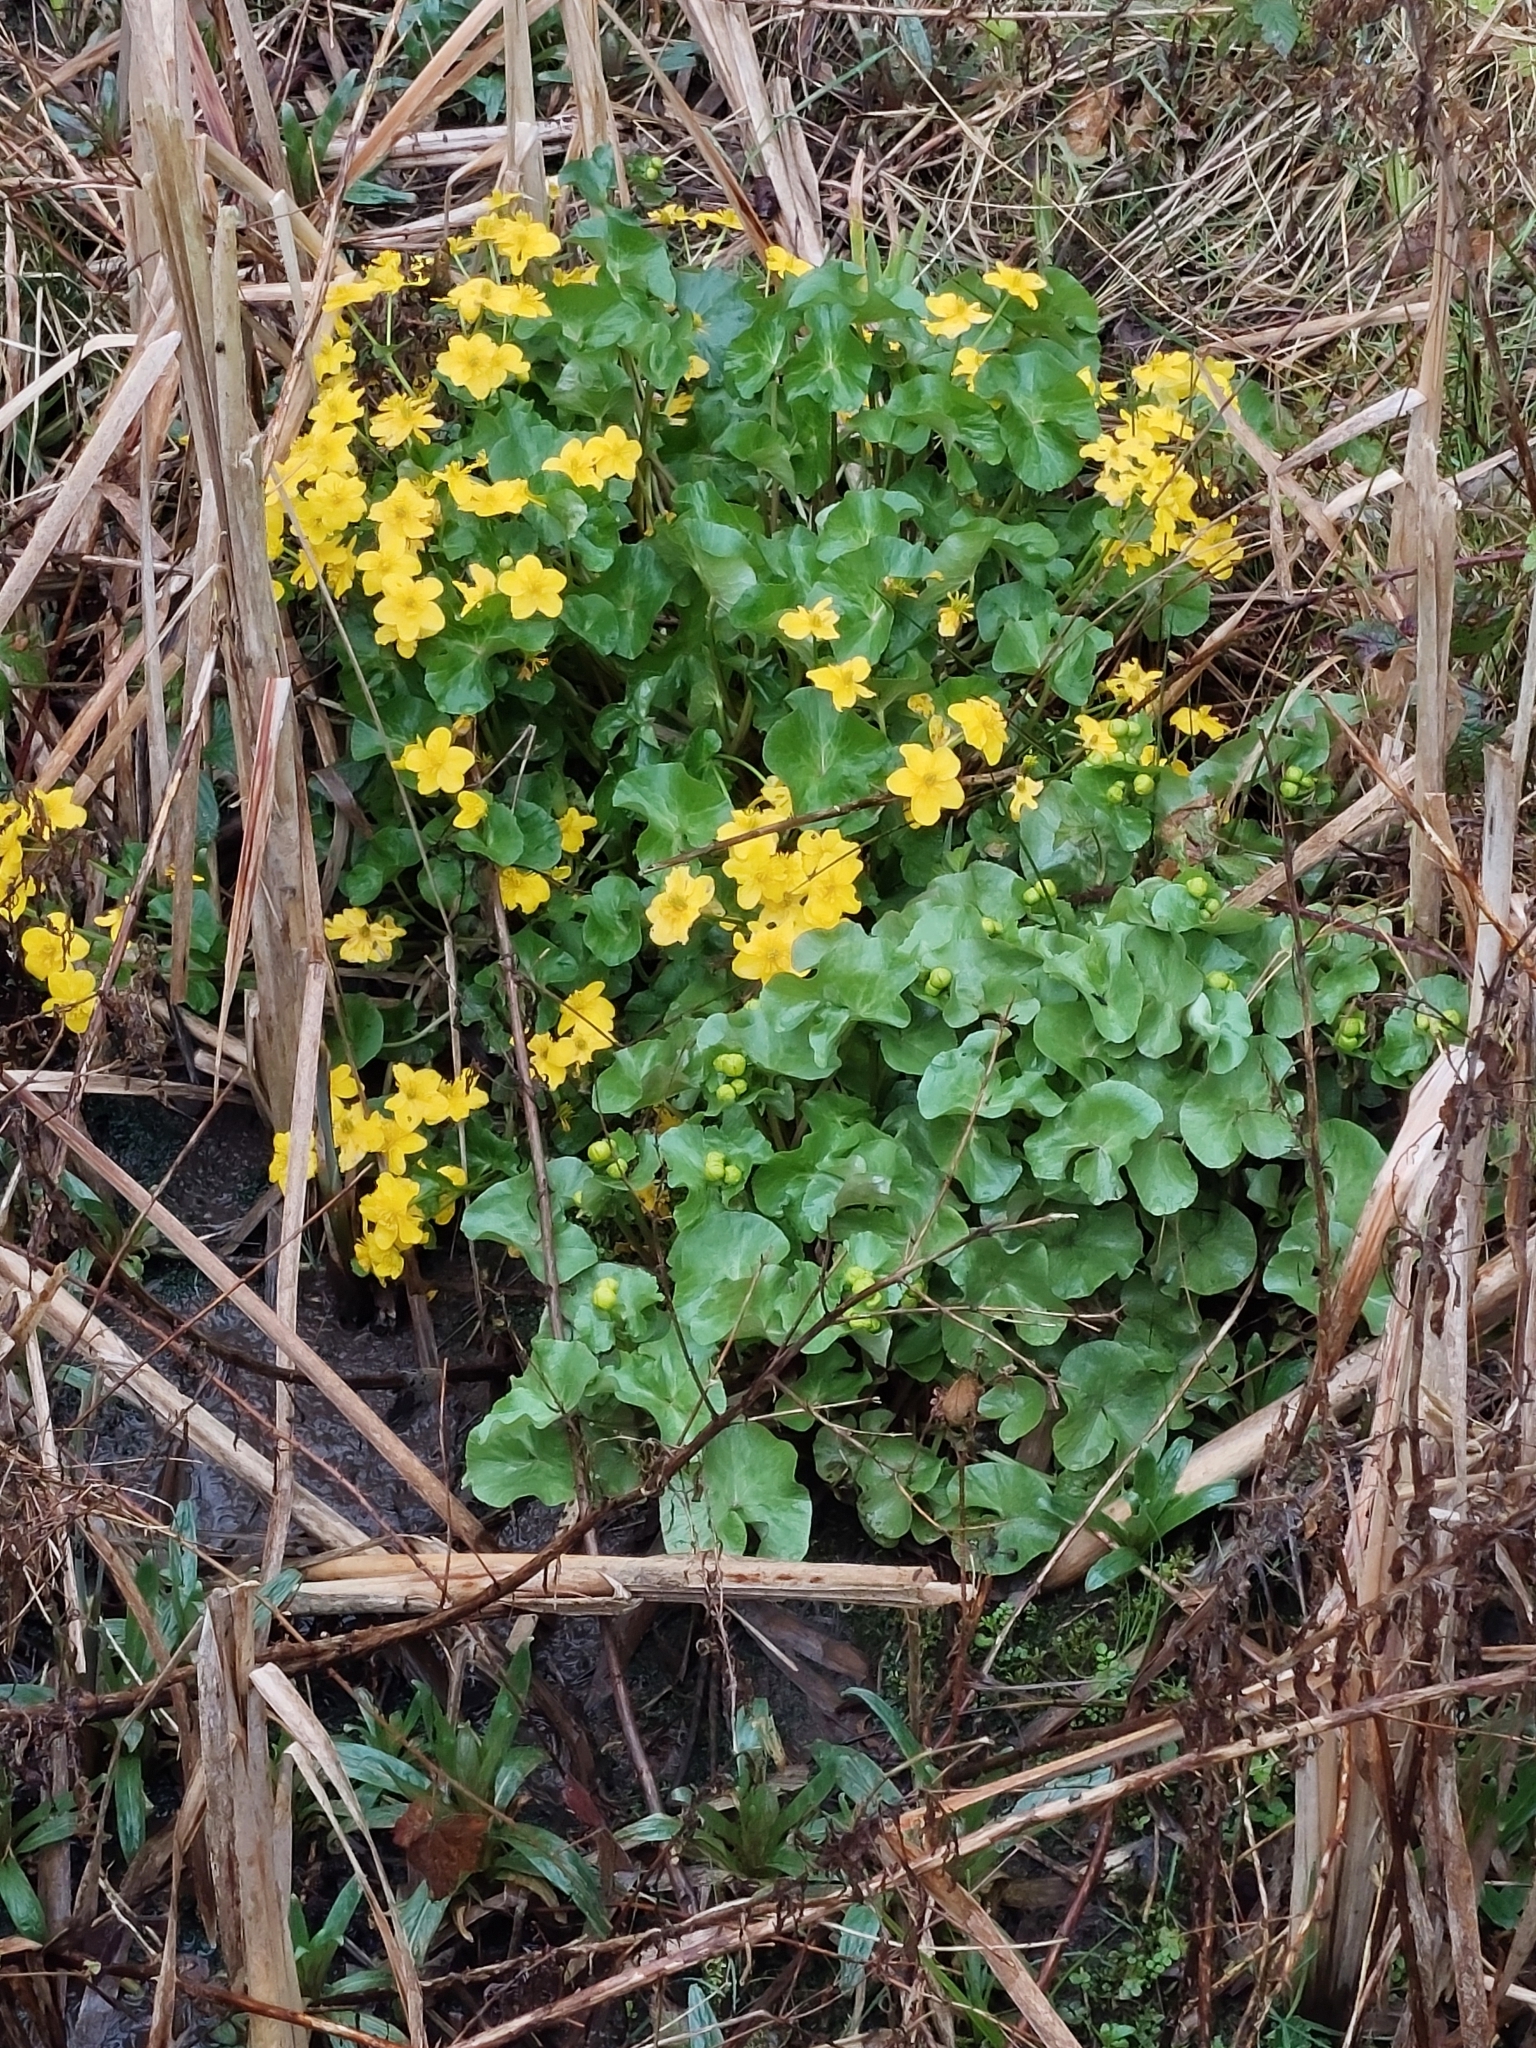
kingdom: Plantae
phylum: Tracheophyta
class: Magnoliopsida
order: Ranunculales
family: Ranunculaceae
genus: Caltha
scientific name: Caltha palustris
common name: Marsh marigold
